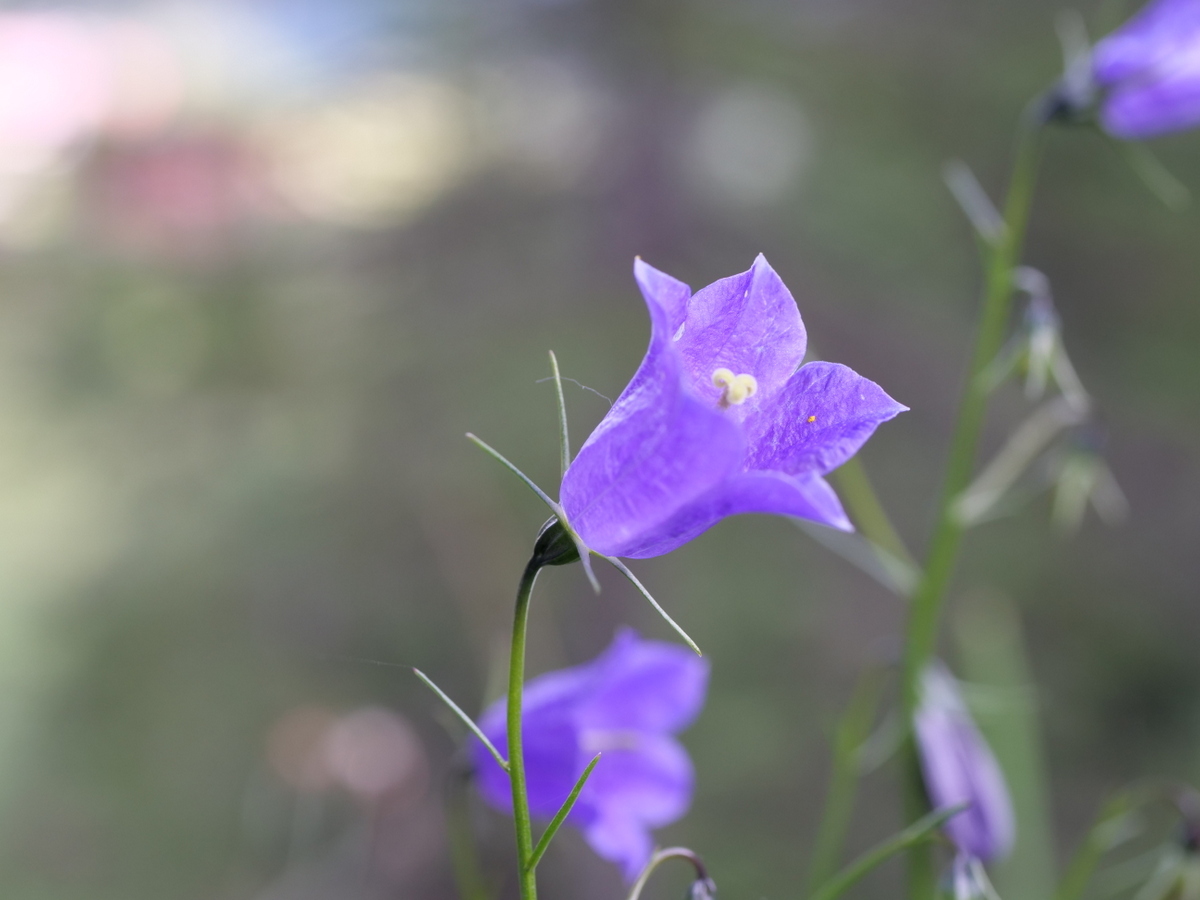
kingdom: Plantae
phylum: Tracheophyta
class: Magnoliopsida
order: Asterales
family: Campanulaceae
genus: Campanula
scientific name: Campanula scheuchzeri
